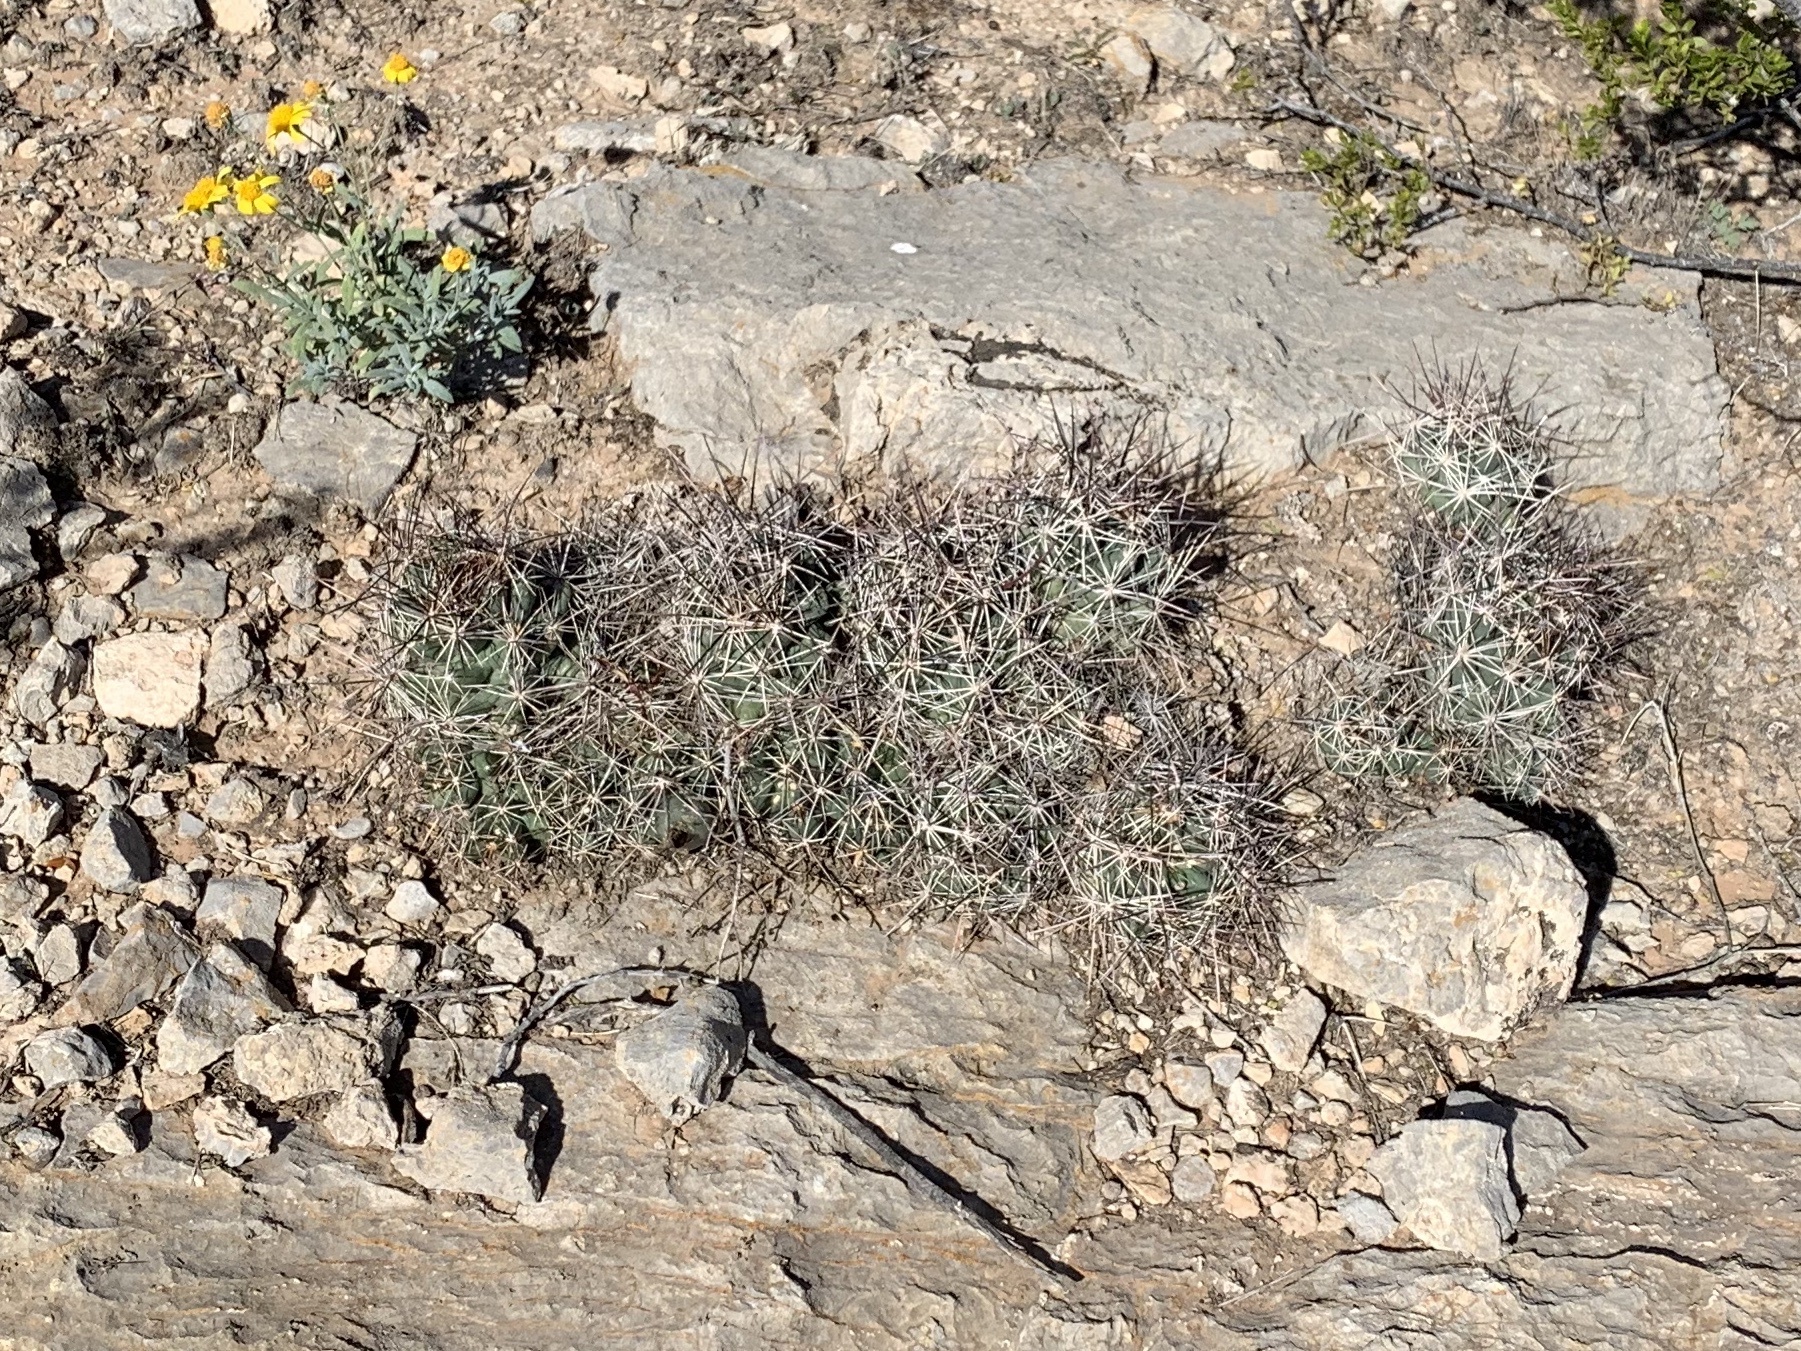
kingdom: Plantae
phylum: Tracheophyta
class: Magnoliopsida
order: Caryophyllales
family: Cactaceae
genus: Coryphantha
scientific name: Coryphantha macromeris
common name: Nipple beehive cactus
